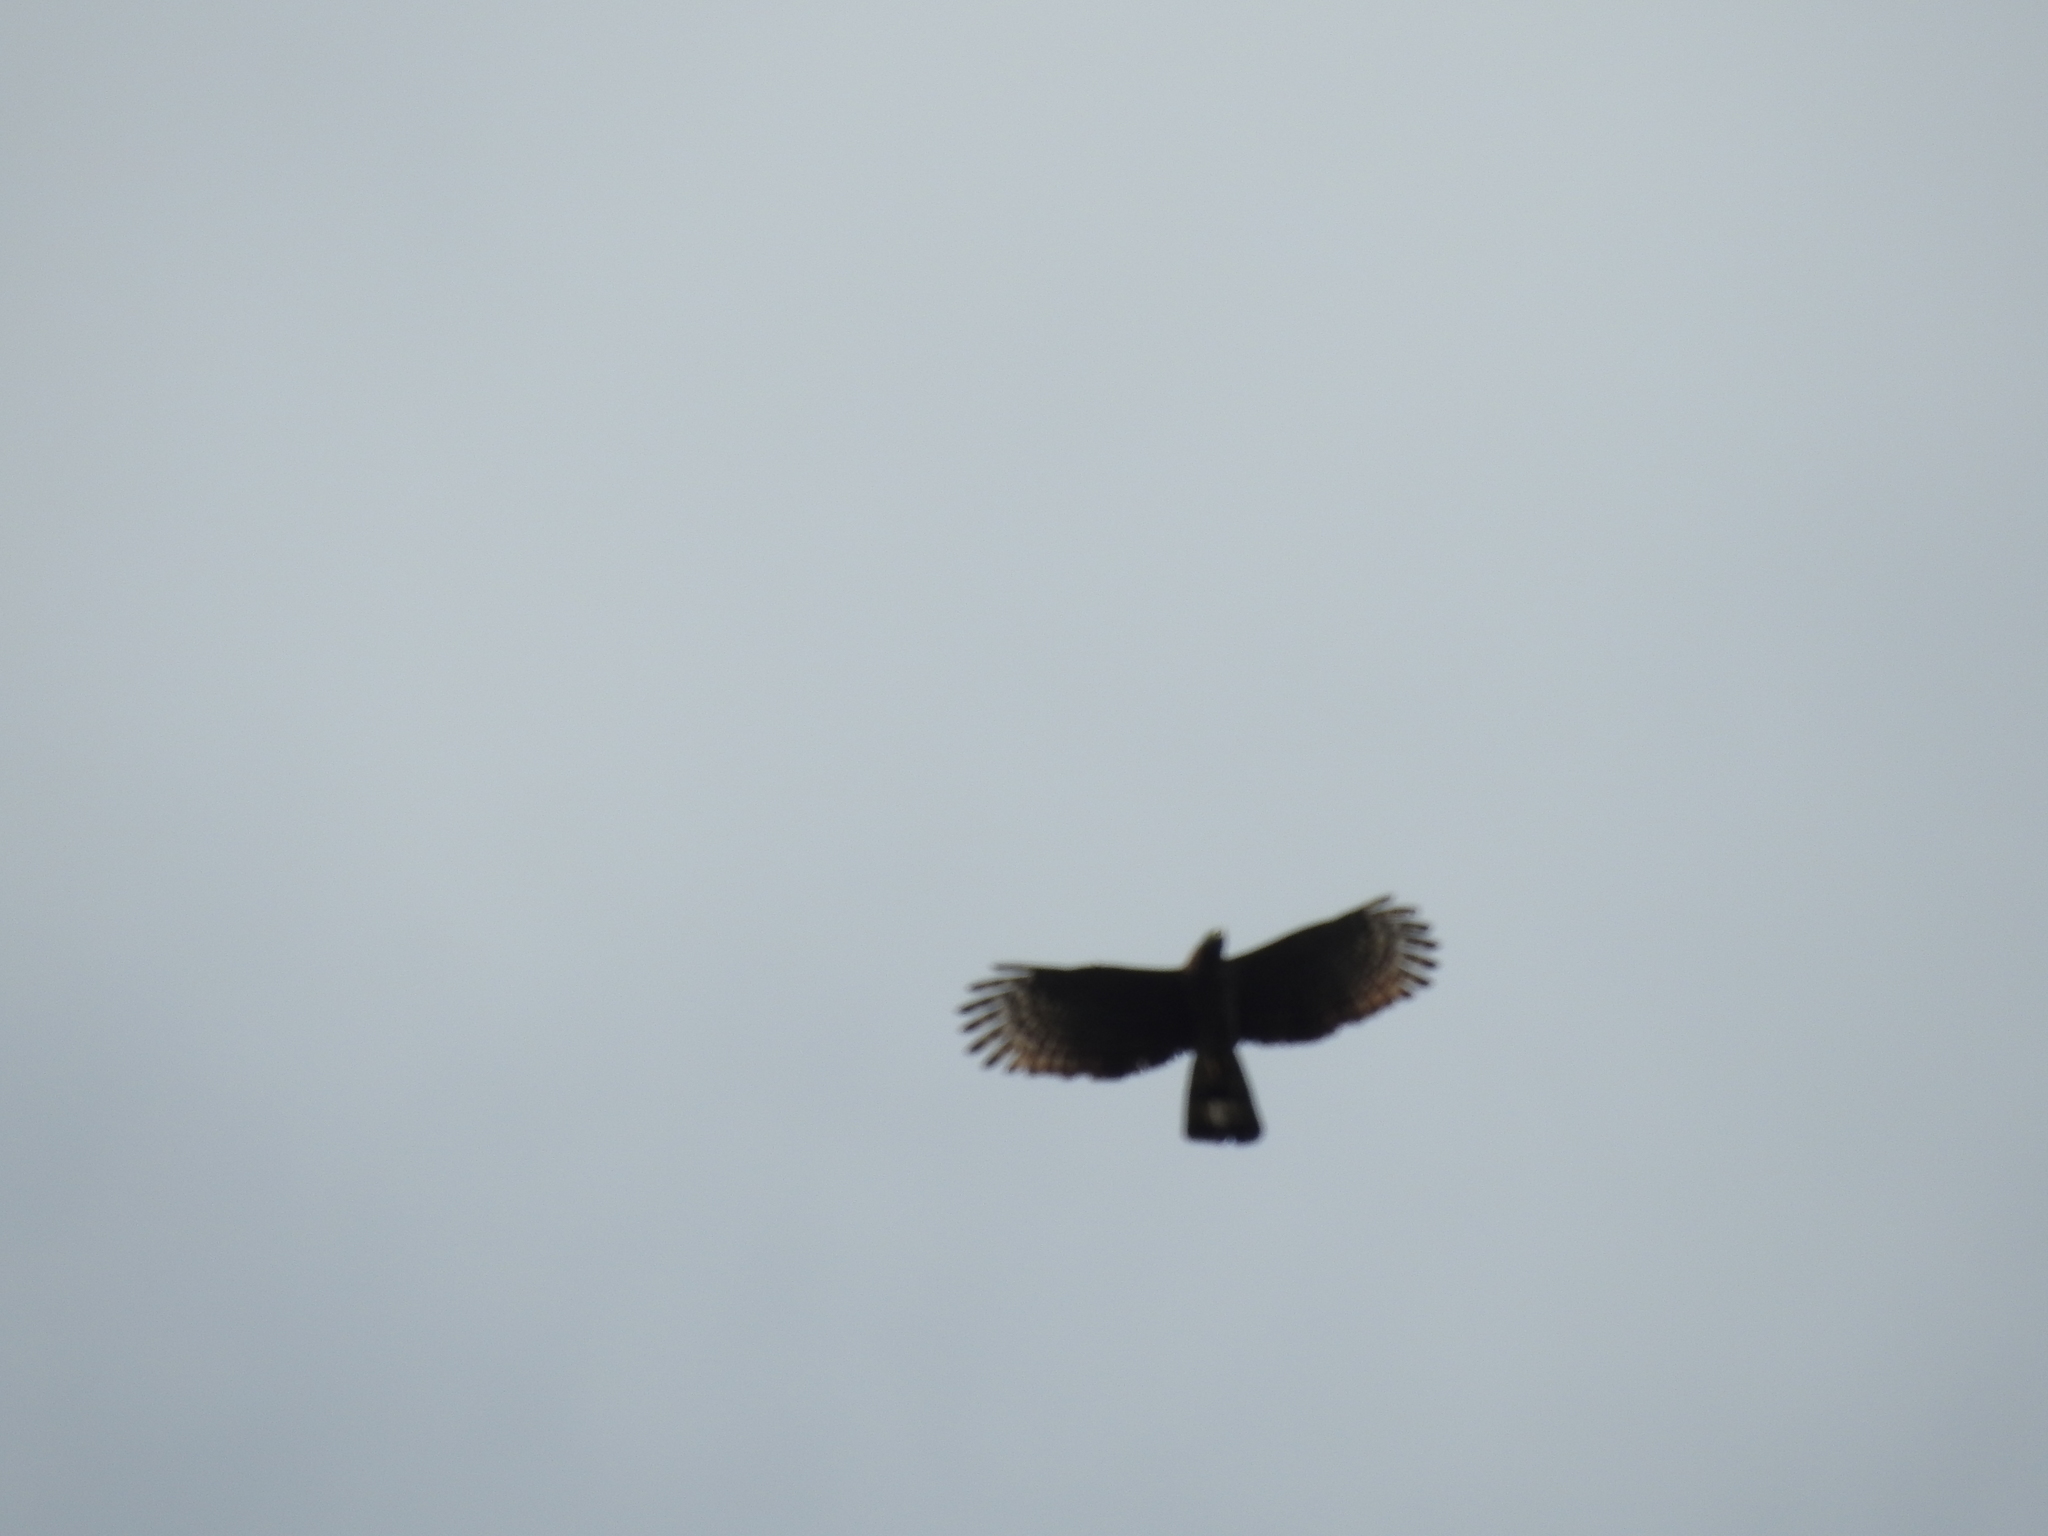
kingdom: Animalia
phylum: Chordata
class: Aves
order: Accipitriformes
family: Accipitridae
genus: Chondrohierax
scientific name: Chondrohierax uncinatus
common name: Hook-billed kite
